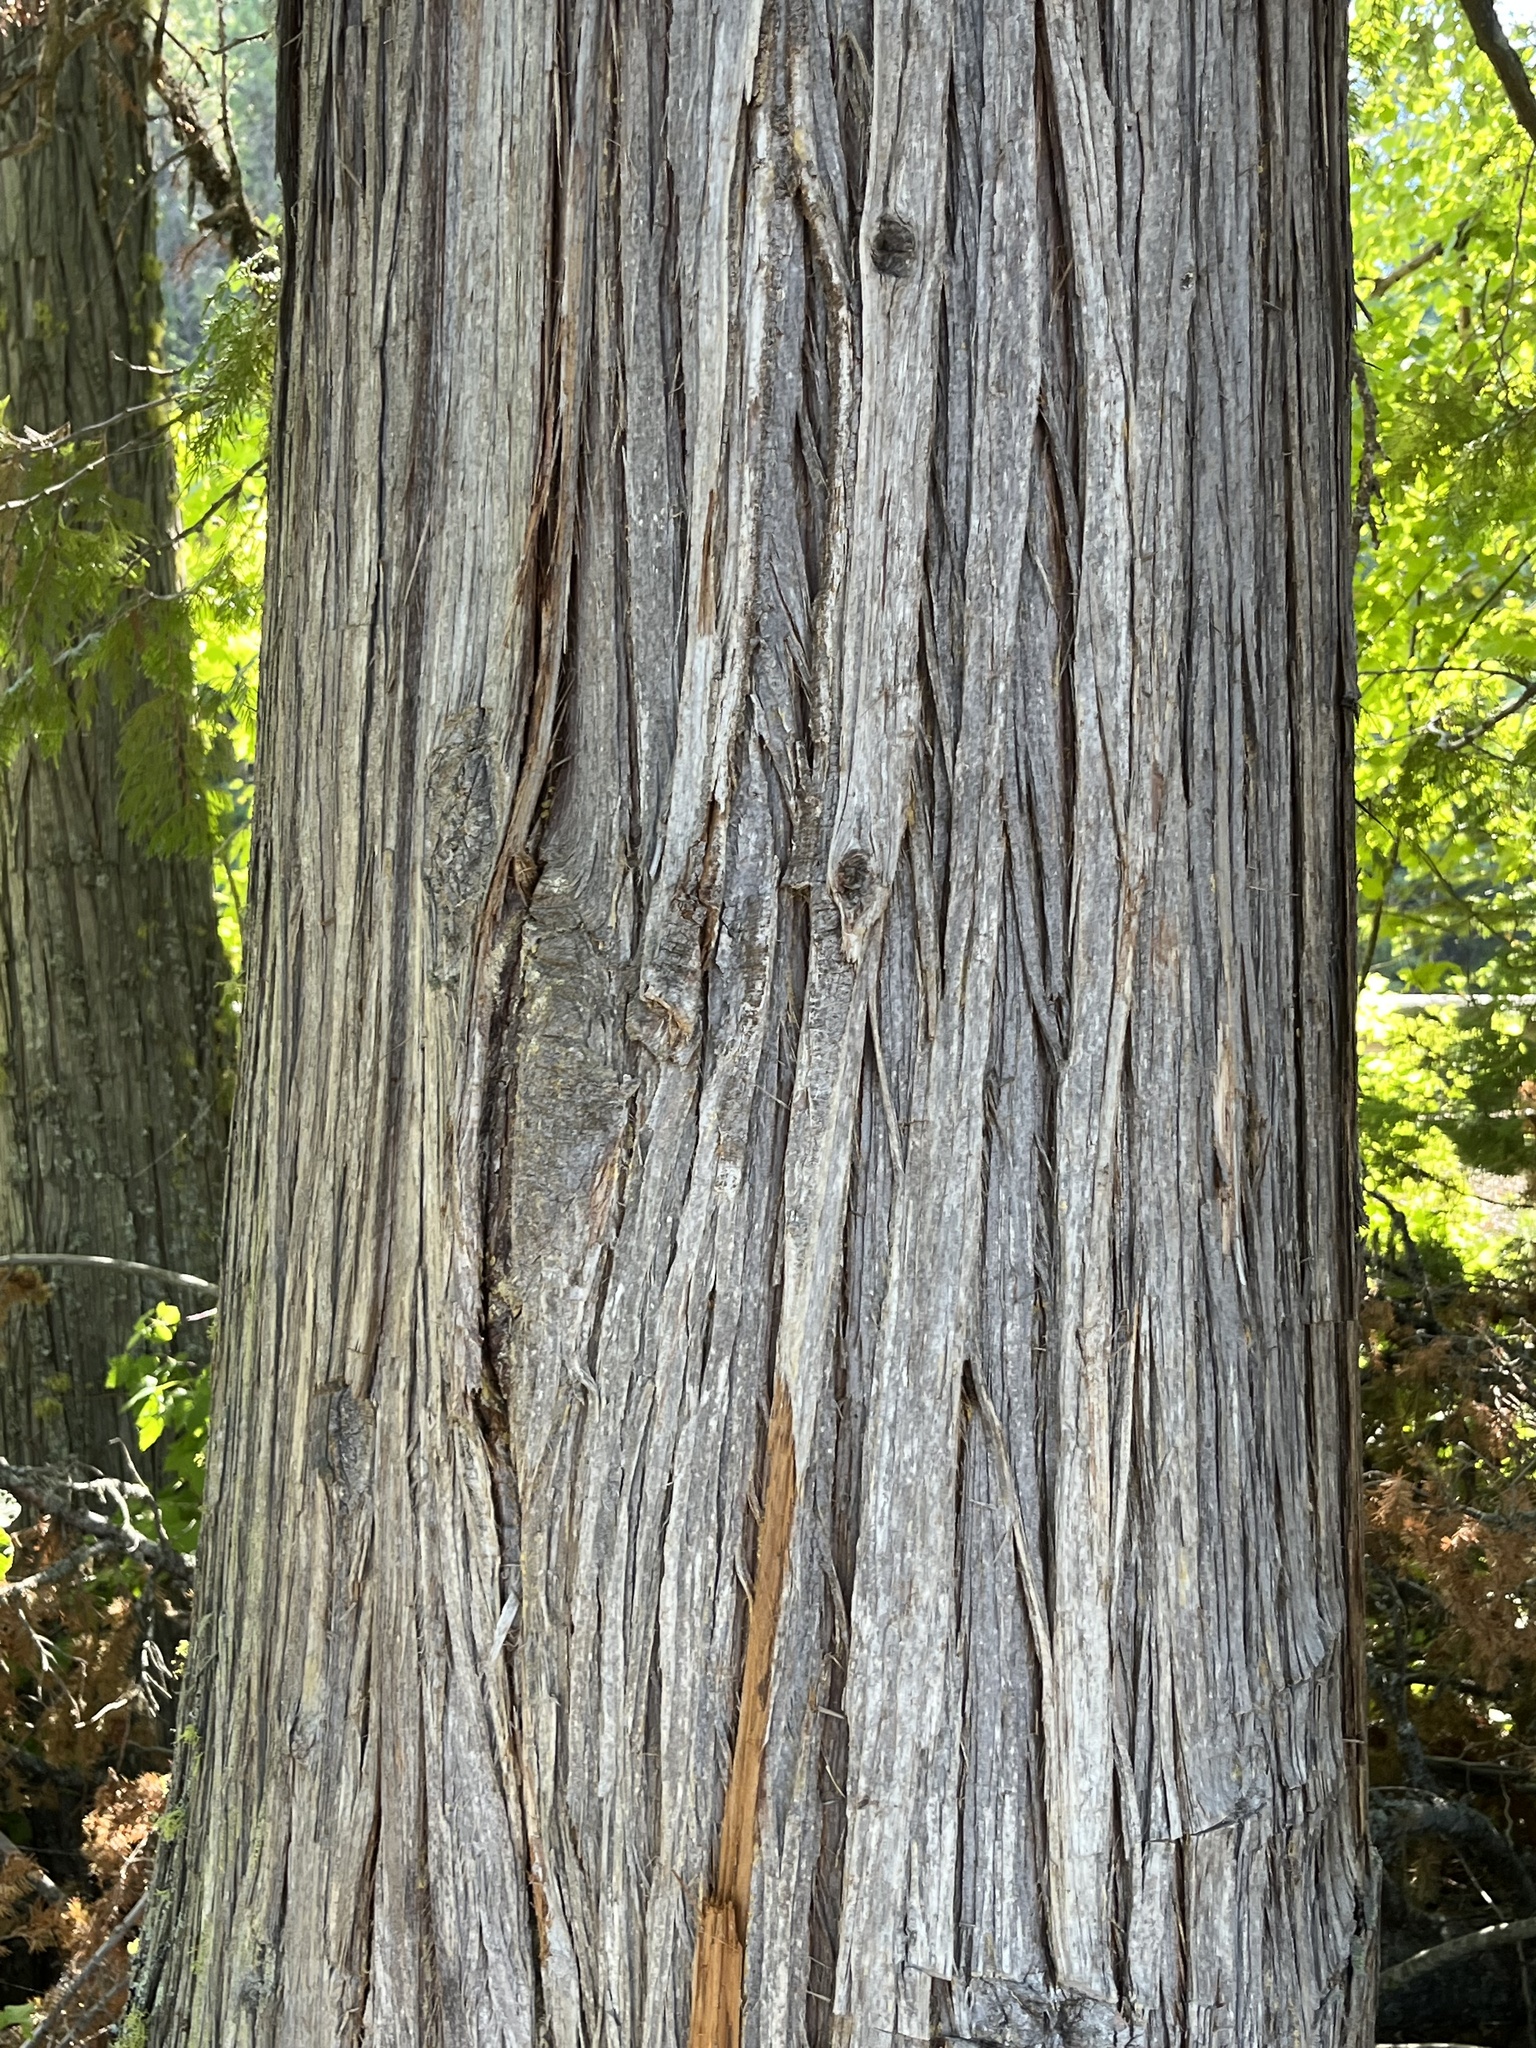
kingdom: Plantae
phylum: Tracheophyta
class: Pinopsida
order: Pinales
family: Cupressaceae
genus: Thuja
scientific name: Thuja plicata
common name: Western red-cedar
